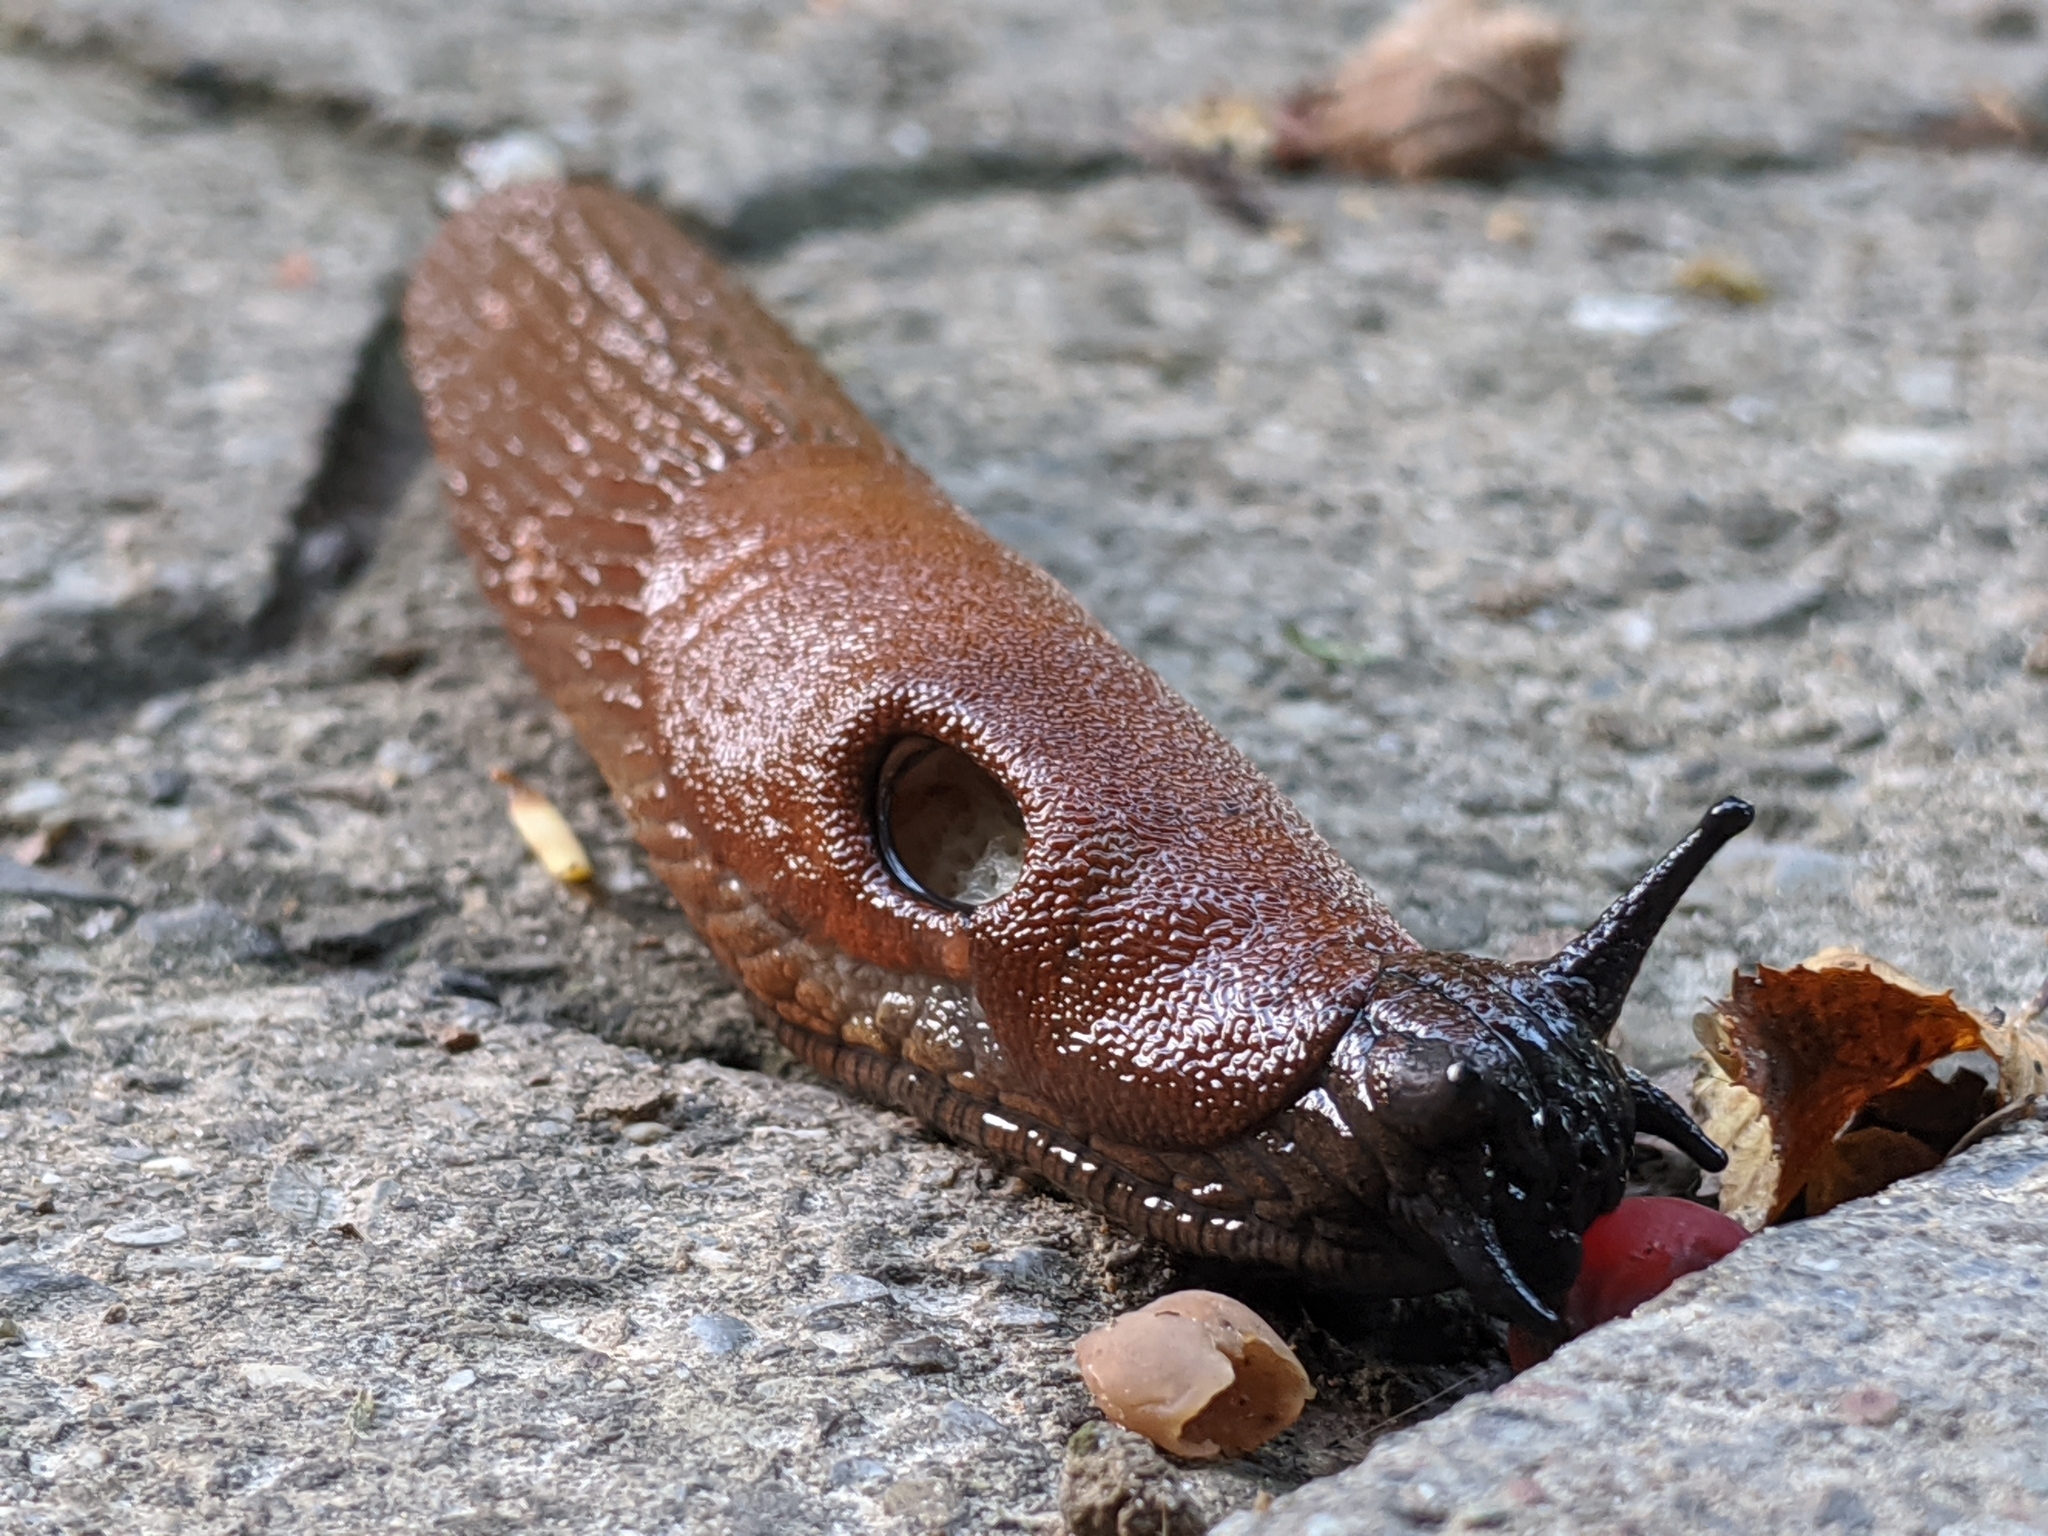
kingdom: Animalia
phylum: Mollusca
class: Gastropoda
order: Stylommatophora
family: Arionidae
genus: Arion
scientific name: Arion
